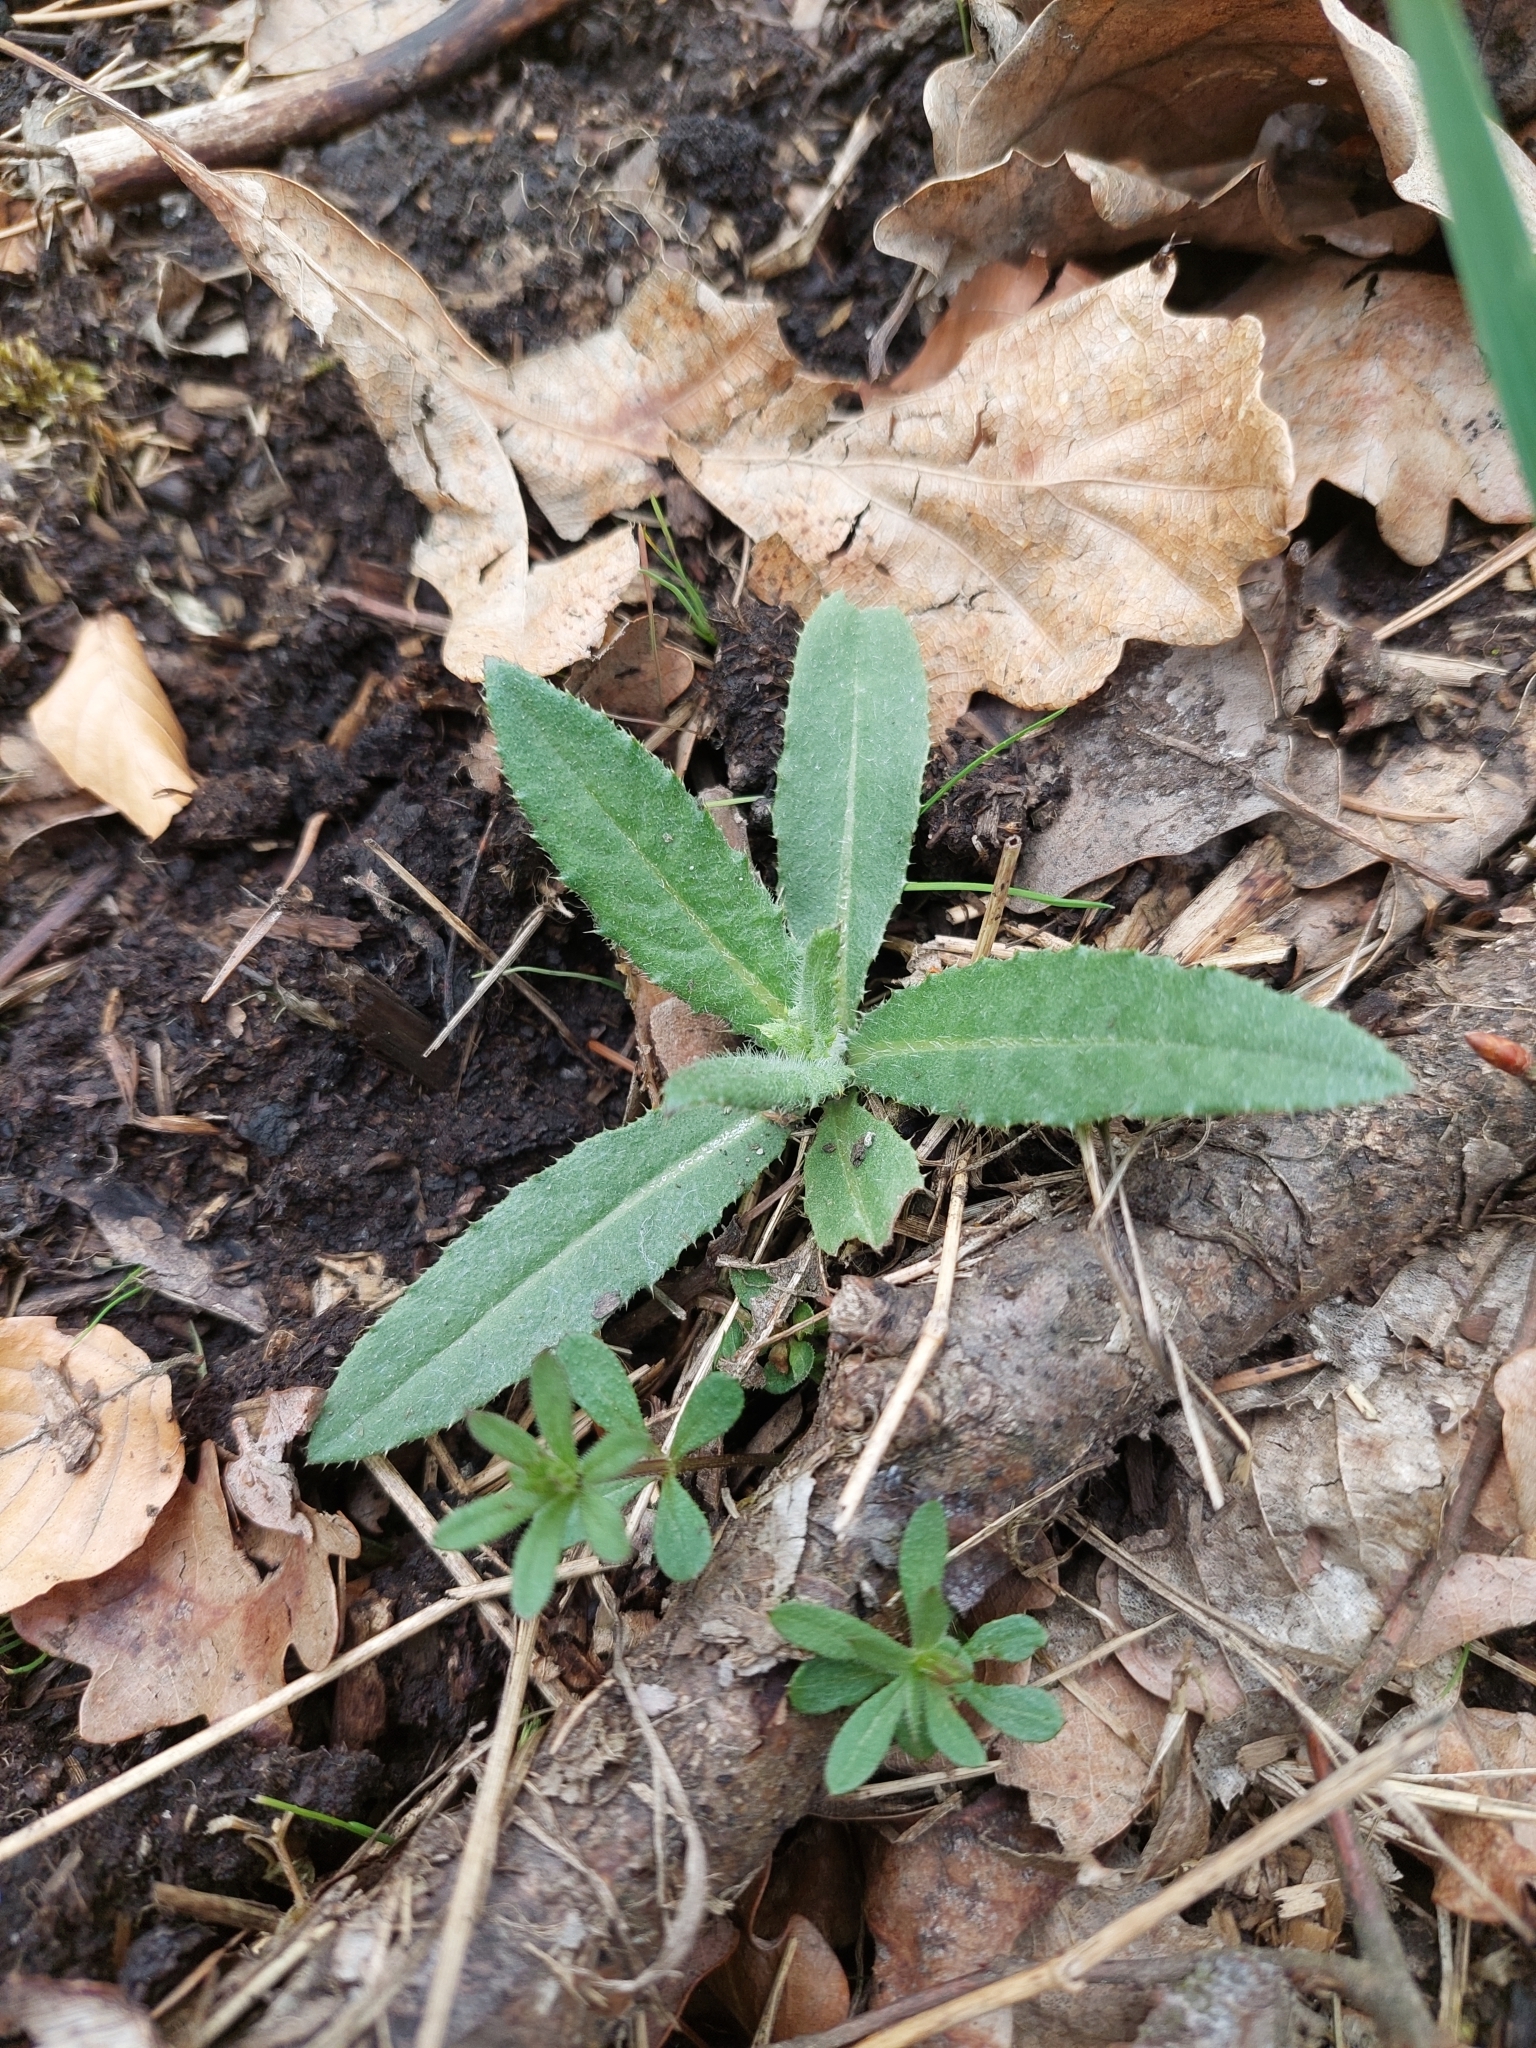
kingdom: Plantae
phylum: Tracheophyta
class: Magnoliopsida
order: Asterales
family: Asteraceae
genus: Cirsium
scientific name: Cirsium arvense
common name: Creeping thistle
